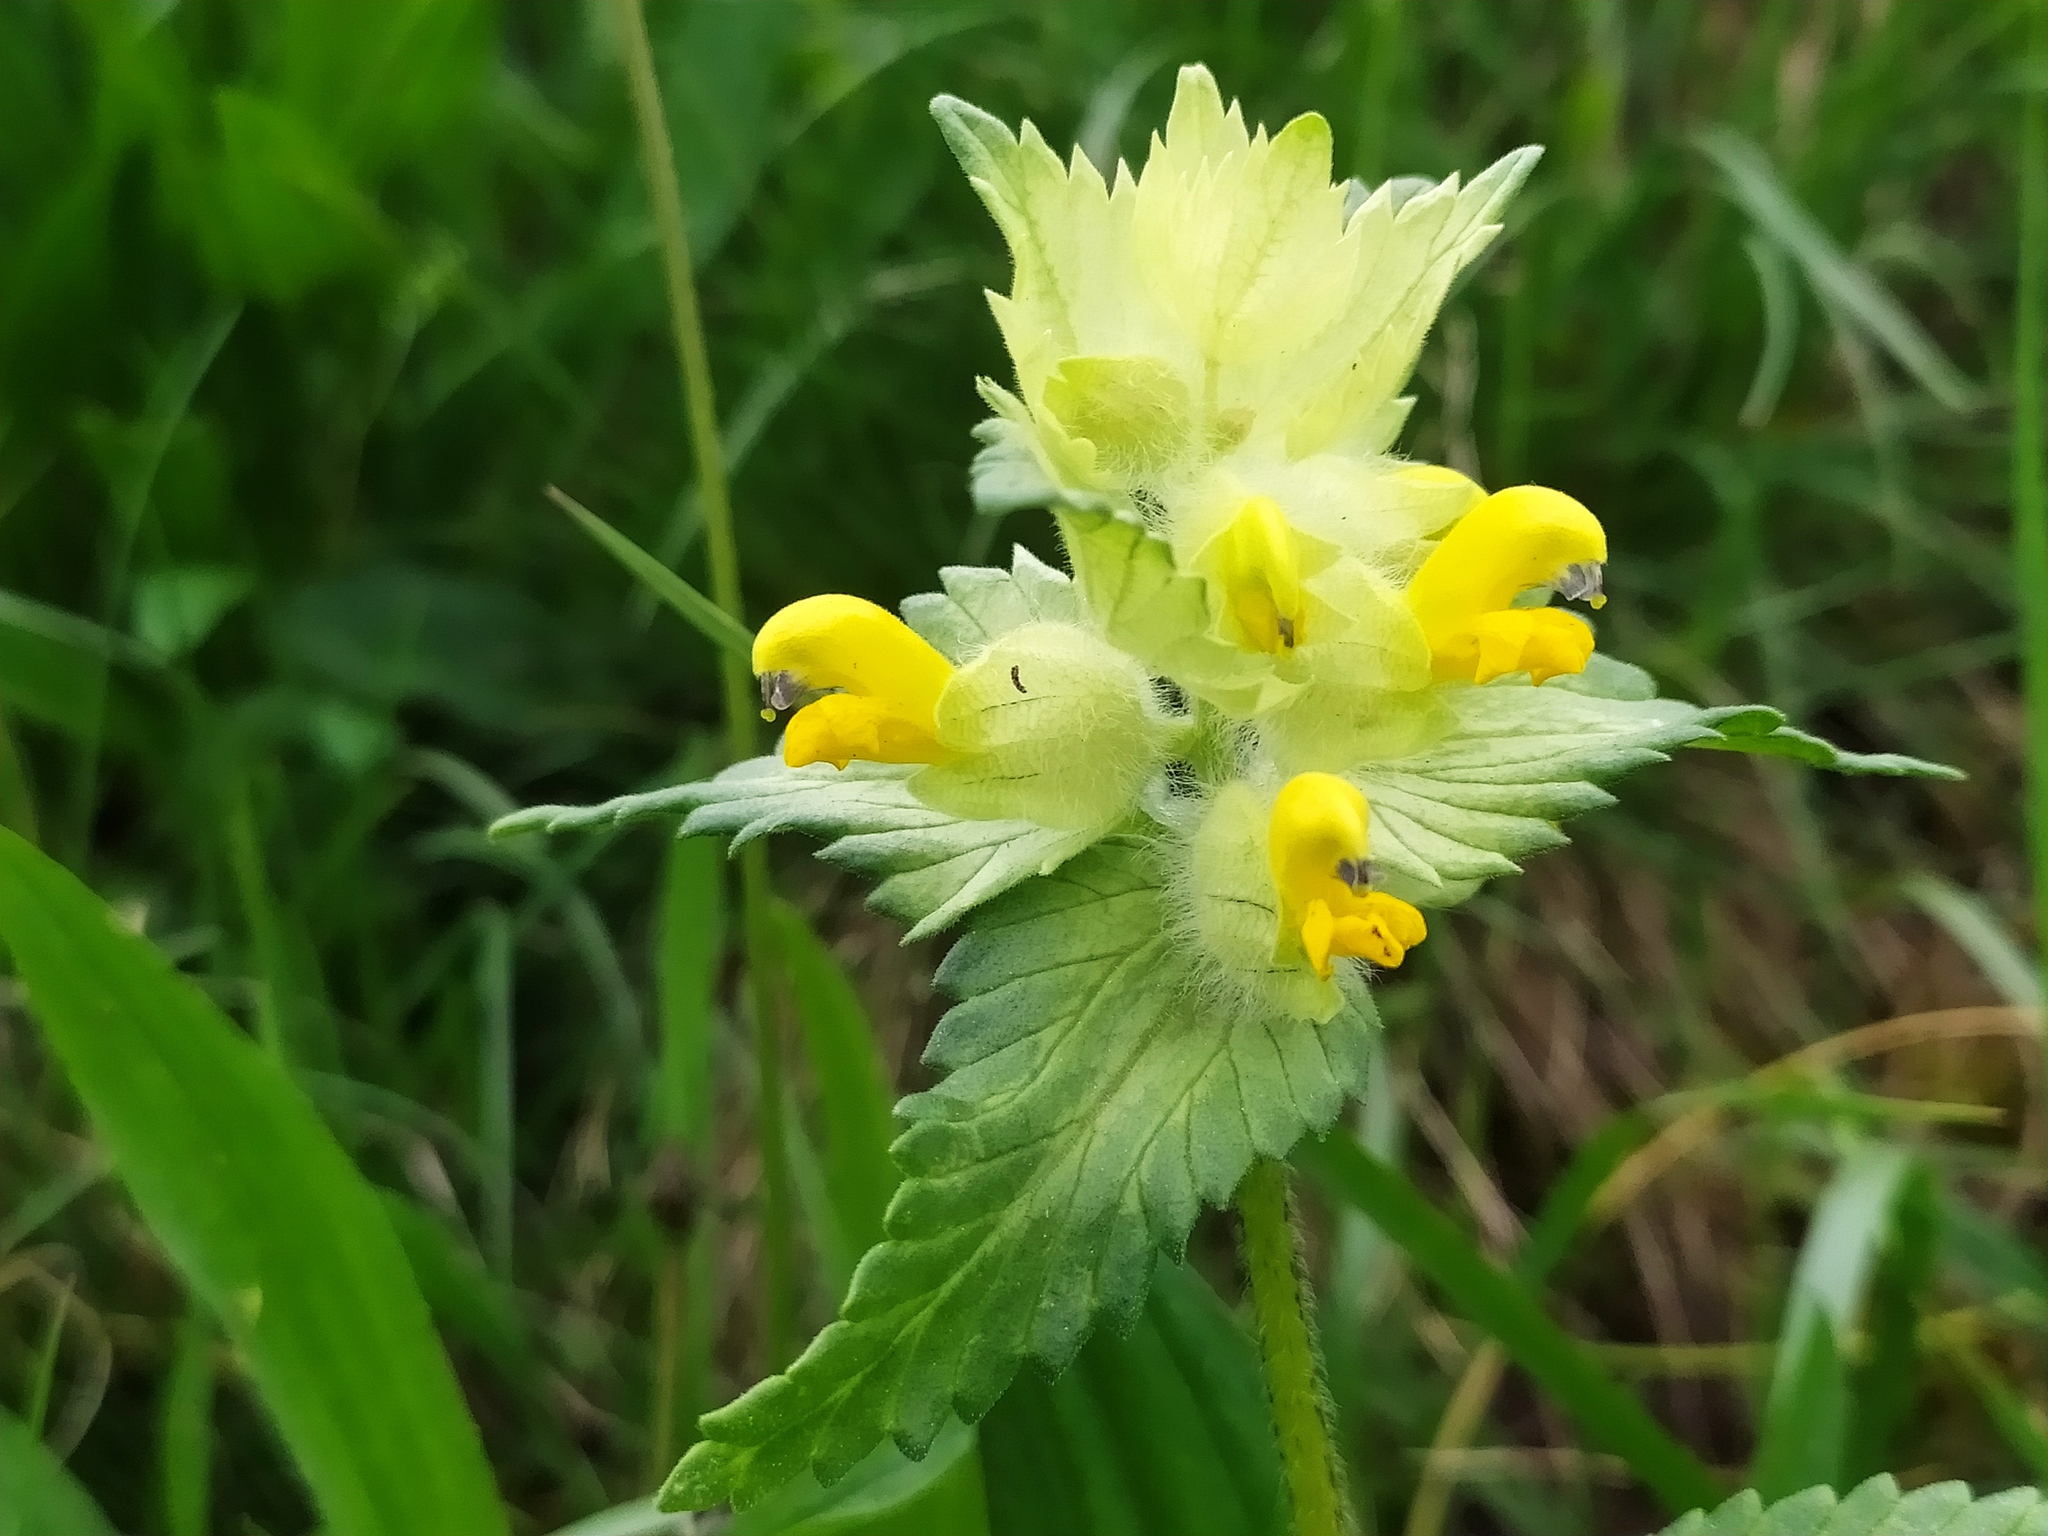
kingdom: Plantae
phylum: Tracheophyta
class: Magnoliopsida
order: Lamiales
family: Orobanchaceae
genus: Rhinanthus
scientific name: Rhinanthus alectorolophus
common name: Greater yellow-rattle
